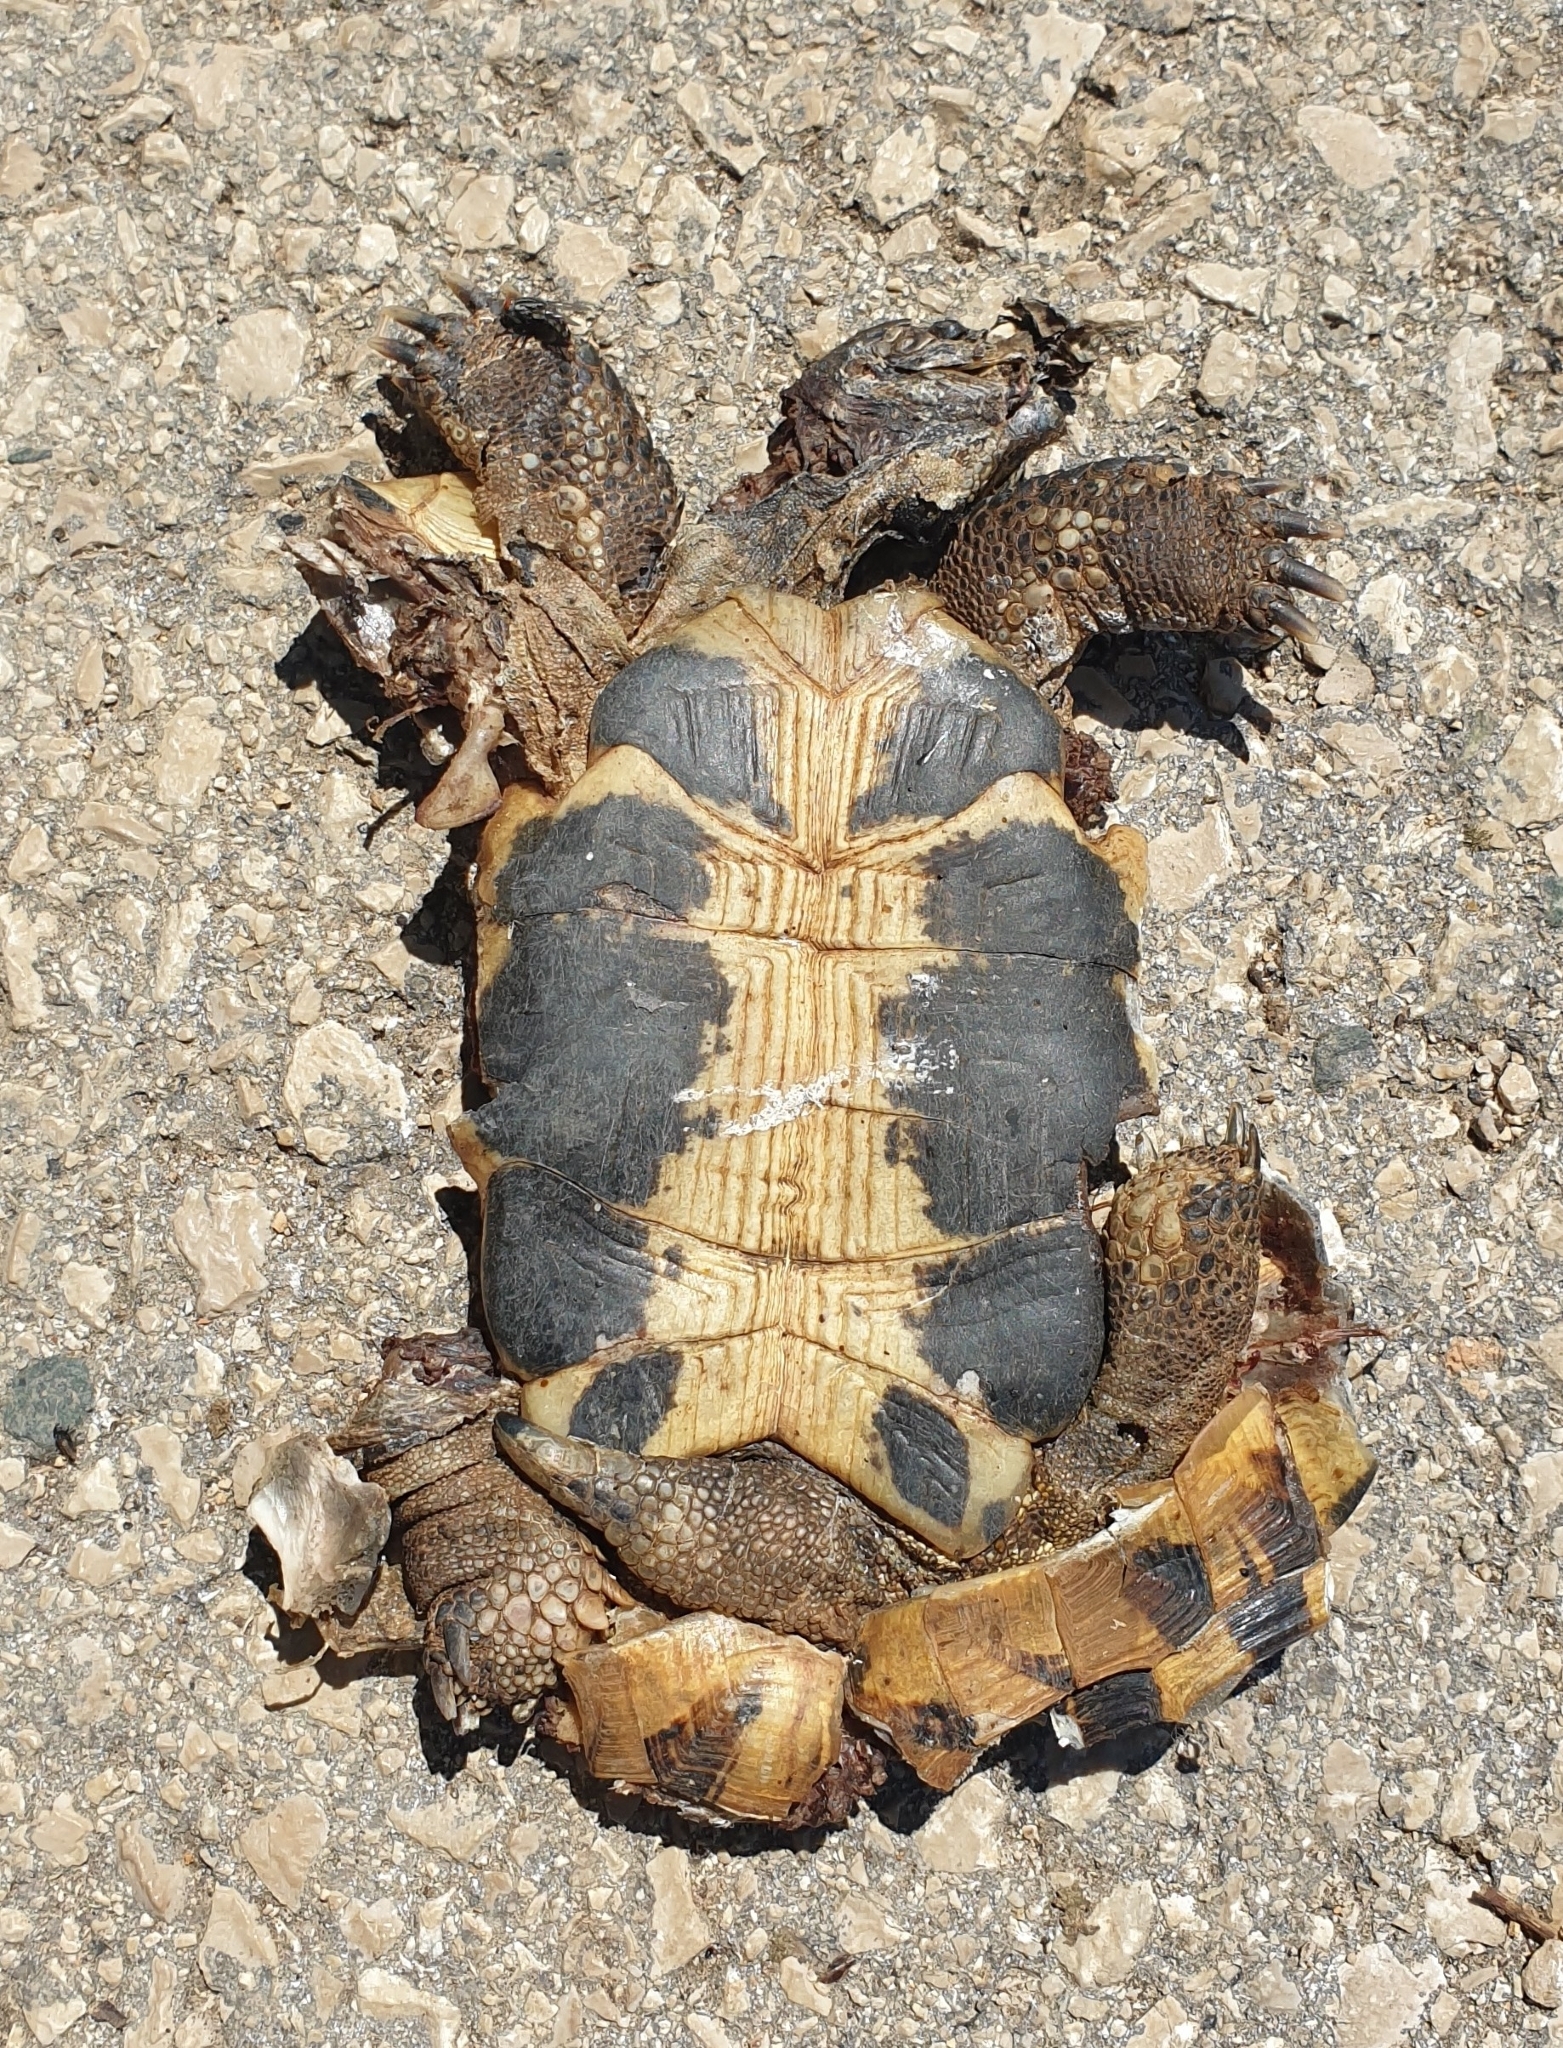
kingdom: Animalia
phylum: Chordata
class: Testudines
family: Testudinidae
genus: Testudo
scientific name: Testudo hermanni
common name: Hermann's tortoise
